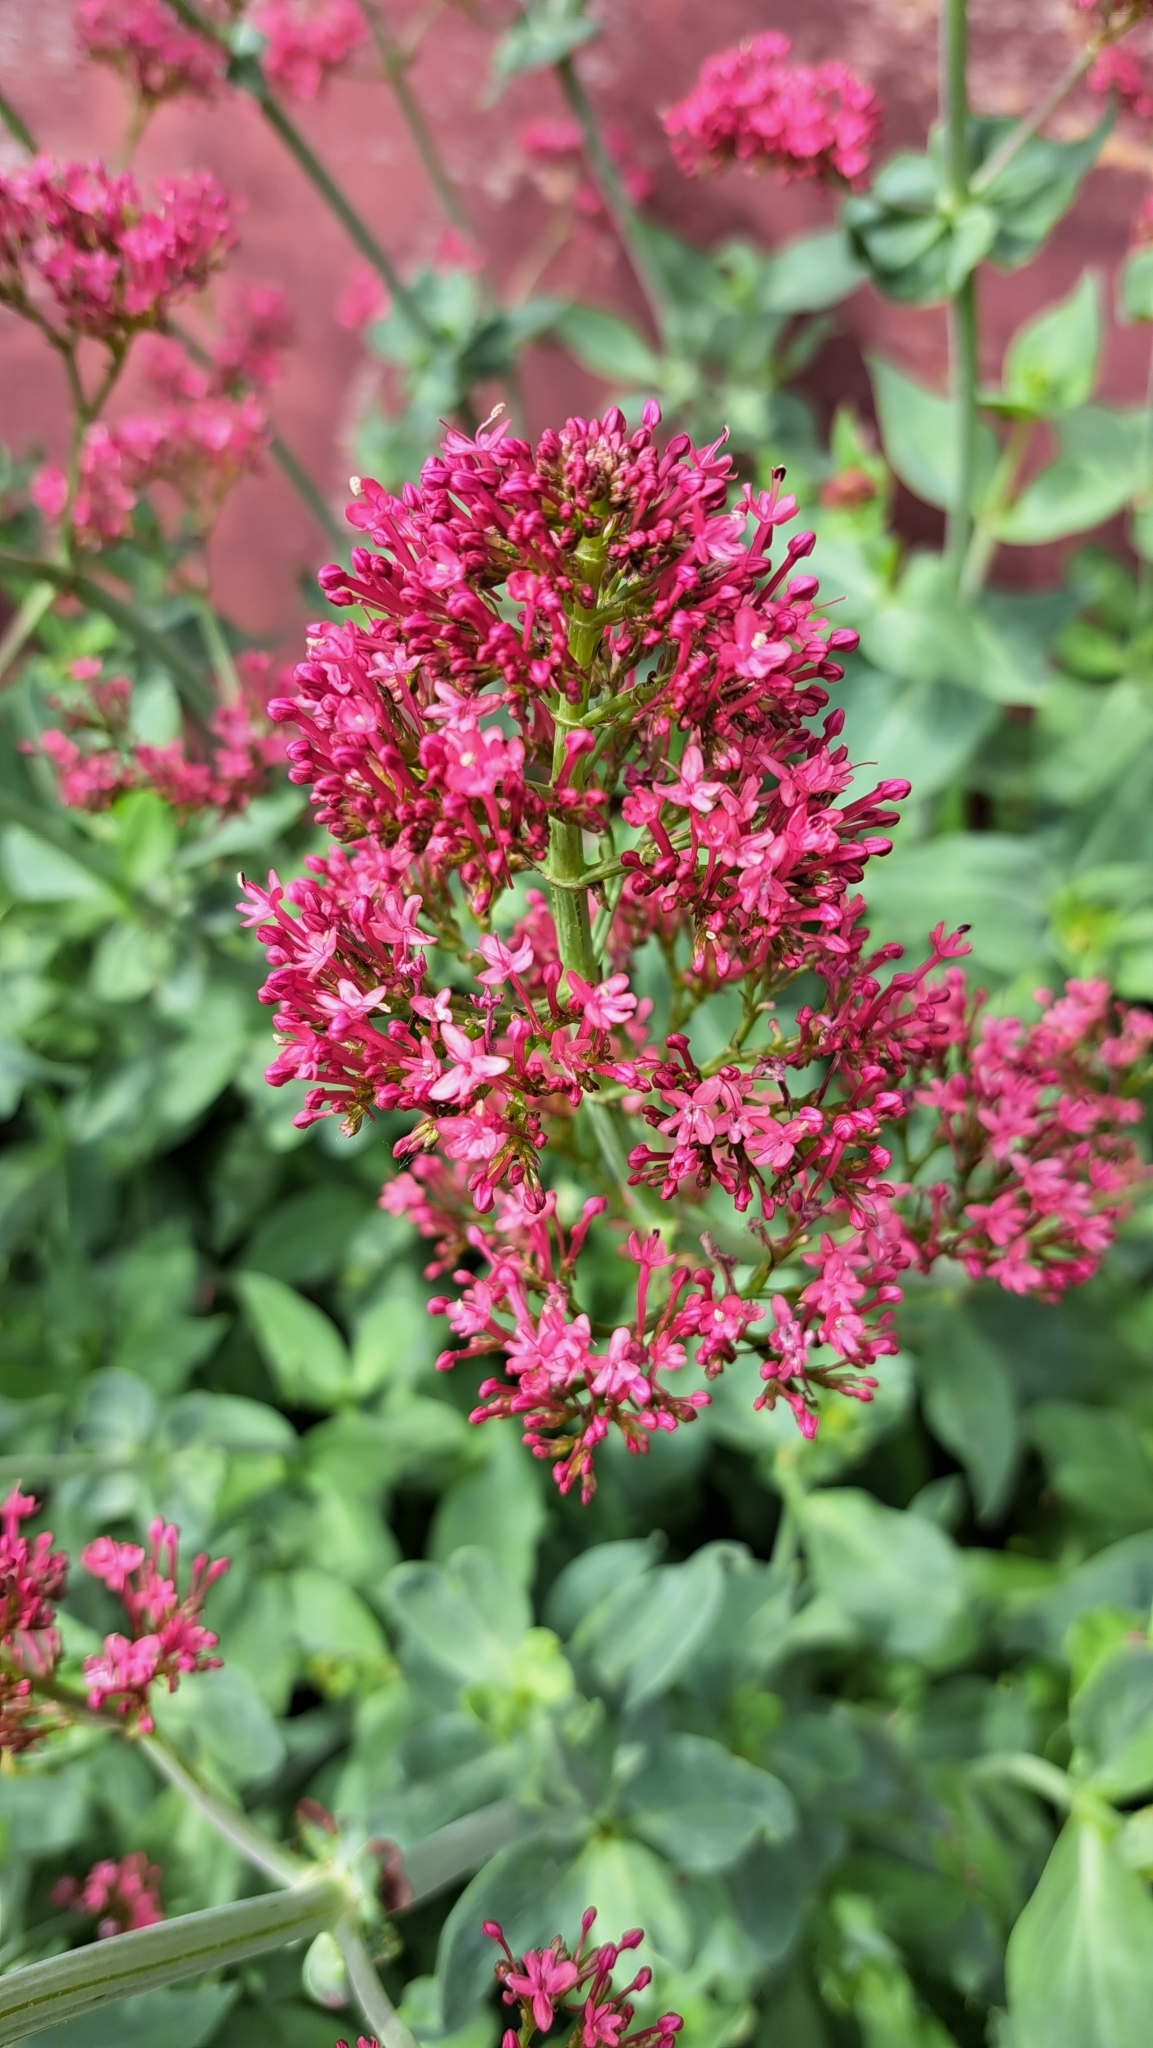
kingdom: Plantae
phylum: Tracheophyta
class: Magnoliopsida
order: Dipsacales
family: Caprifoliaceae
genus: Centranthus
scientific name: Centranthus ruber
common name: Red valerian
